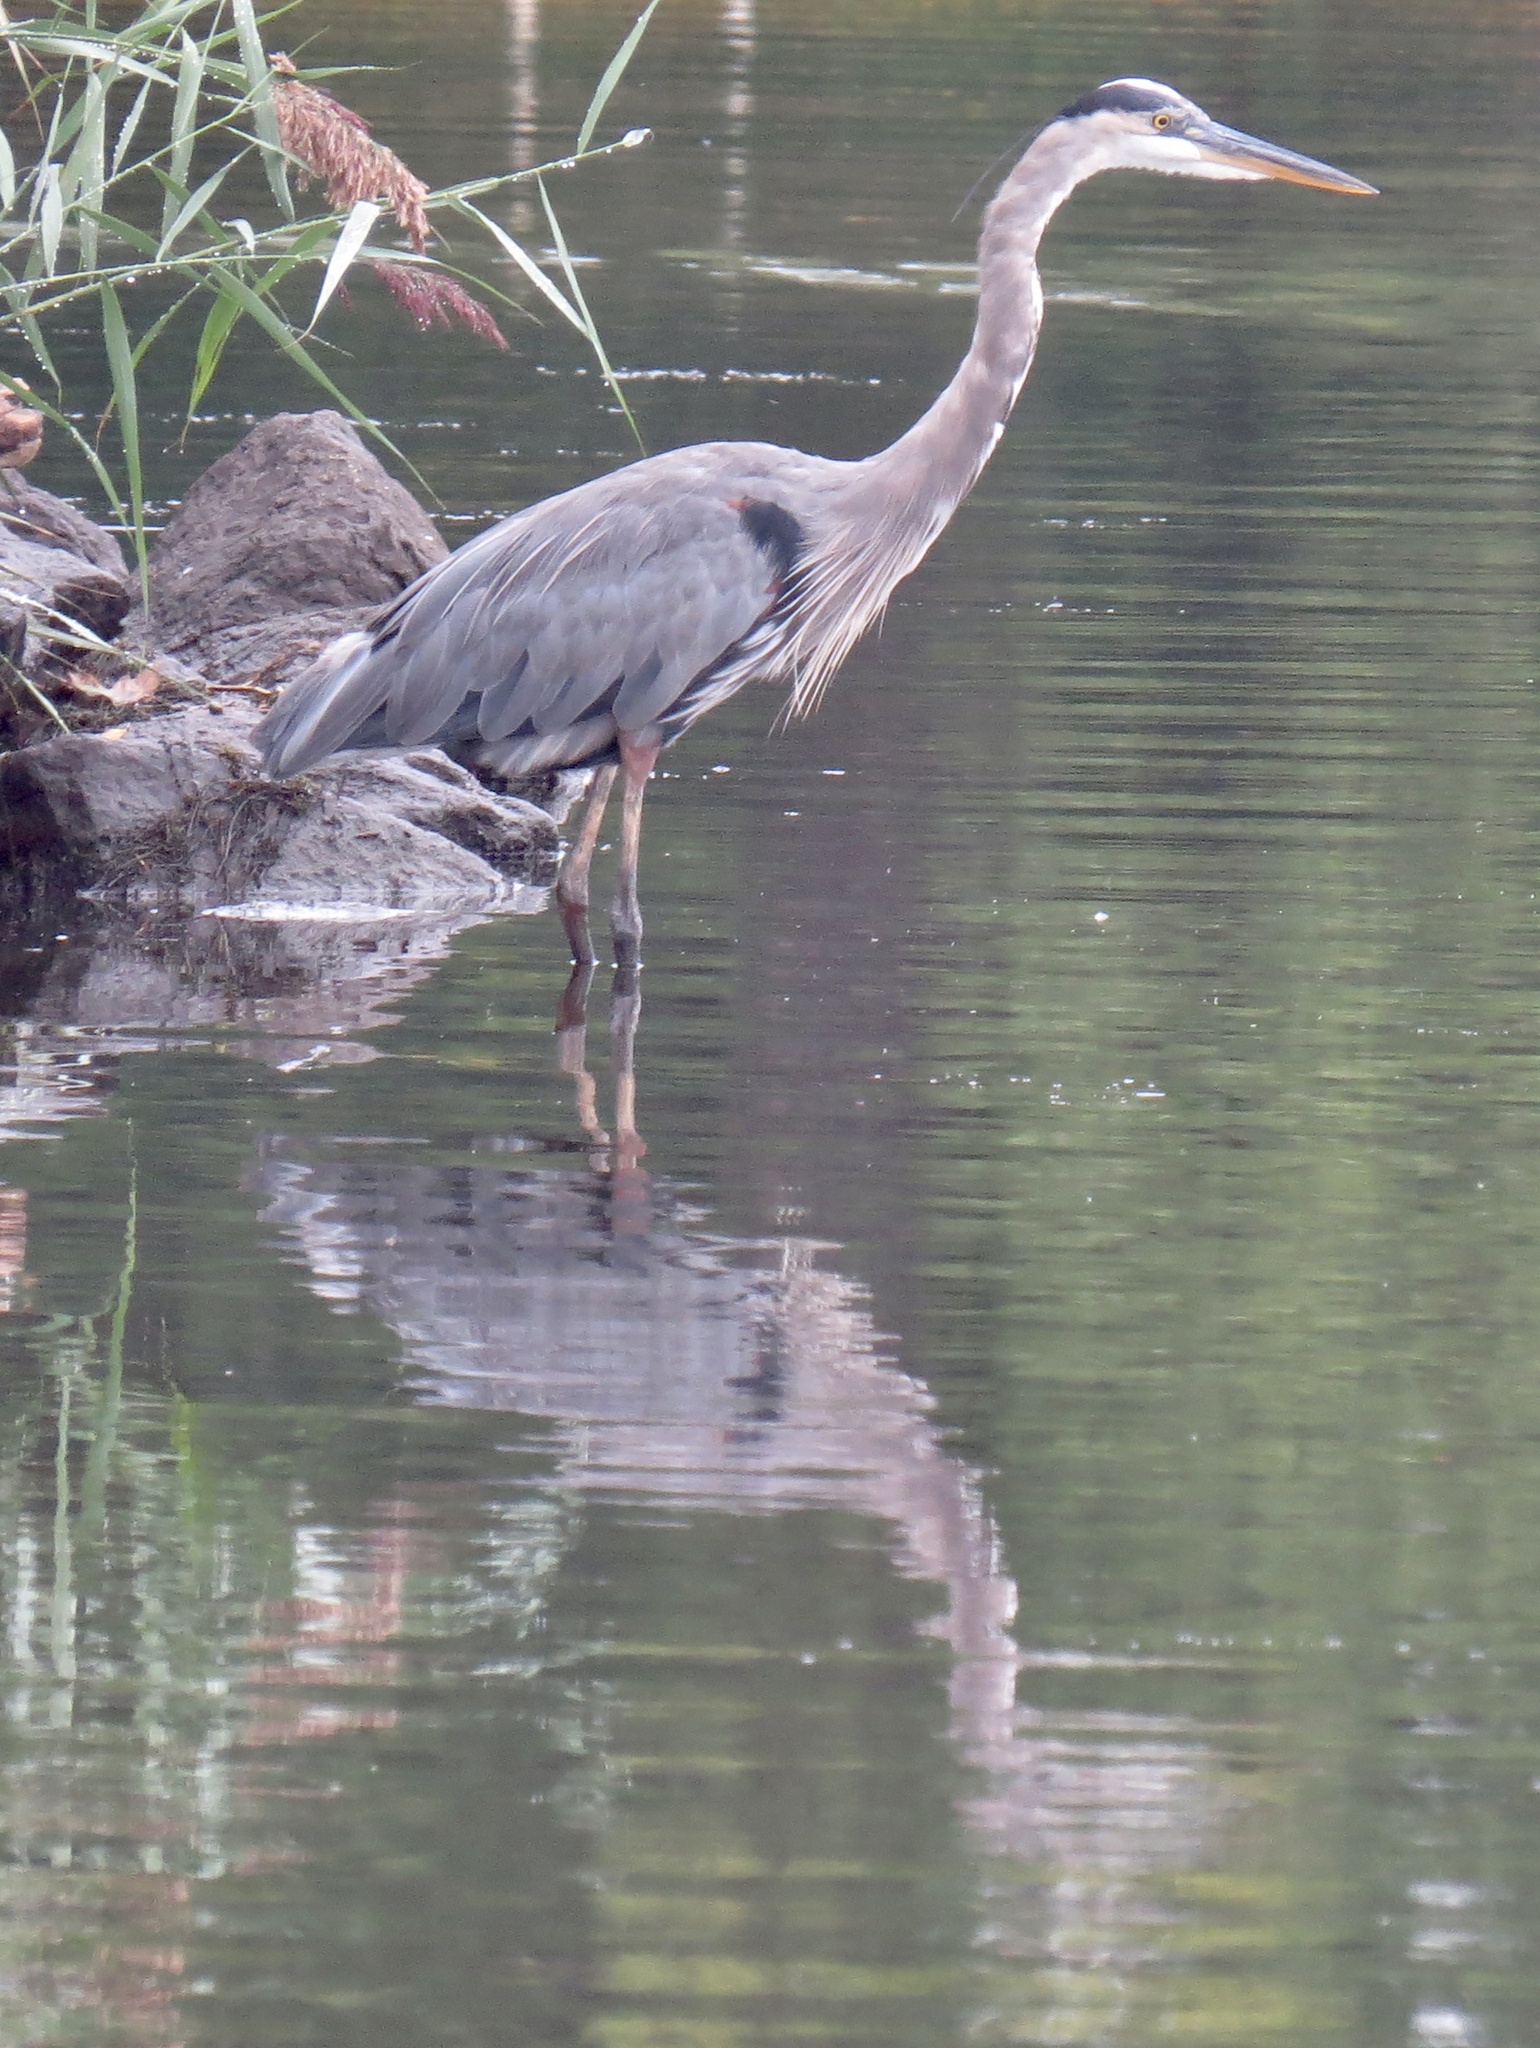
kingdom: Animalia
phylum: Chordata
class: Aves
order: Pelecaniformes
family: Ardeidae
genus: Ardea
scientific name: Ardea herodias
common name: Great blue heron
